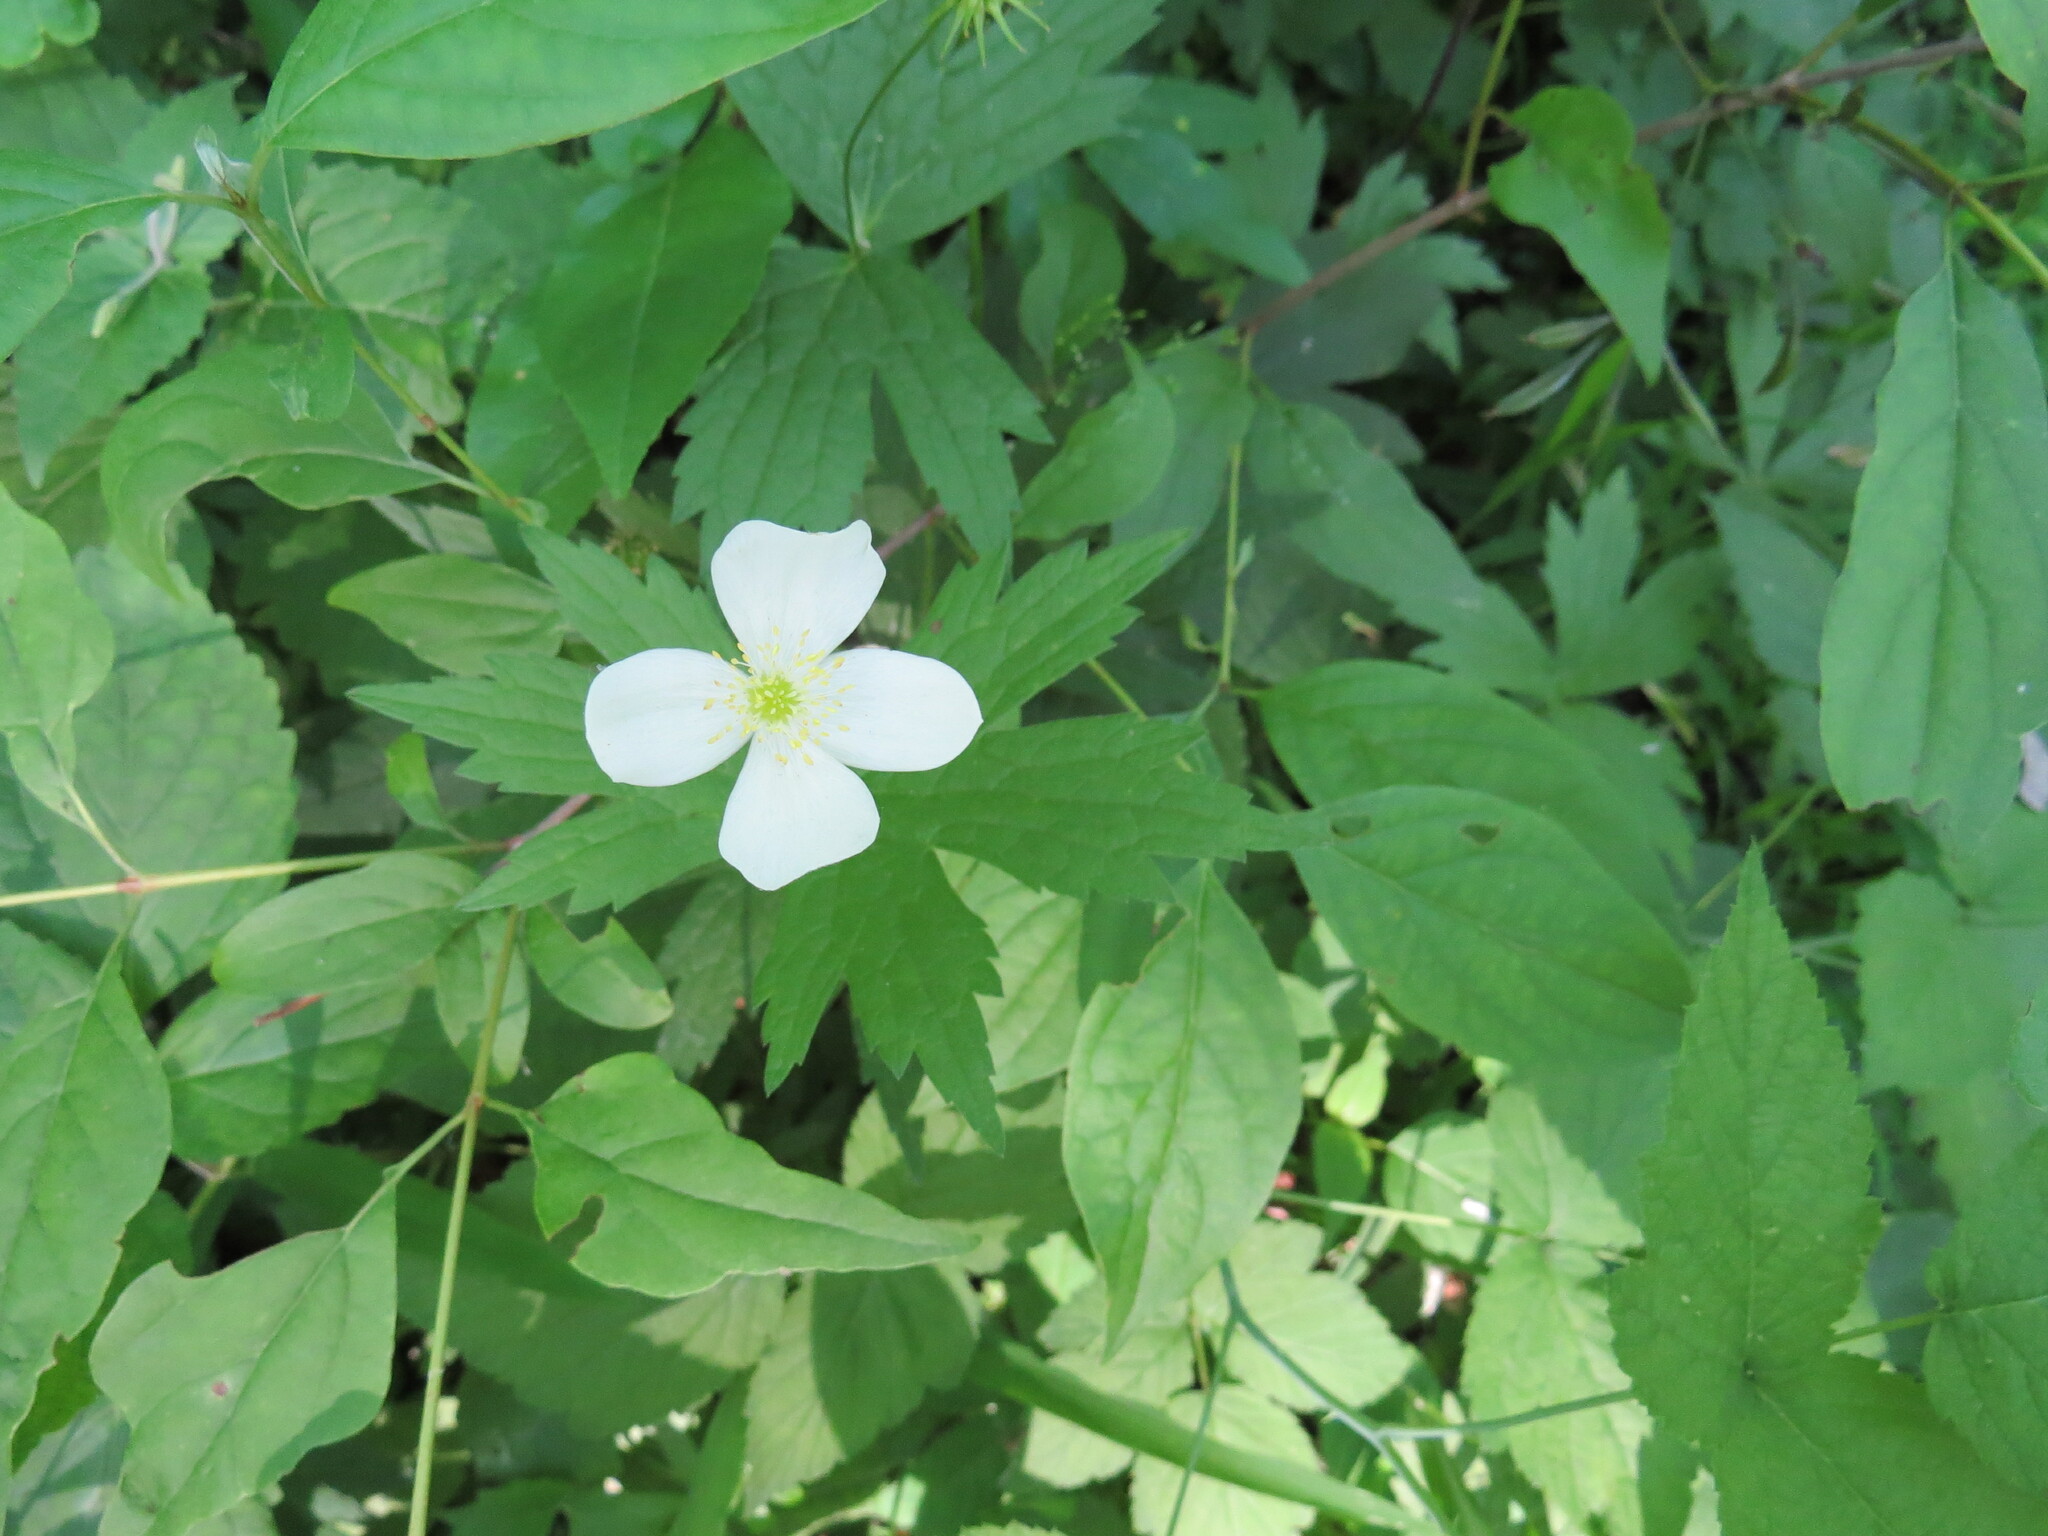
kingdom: Plantae
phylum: Tracheophyta
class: Magnoliopsida
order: Ranunculales
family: Ranunculaceae
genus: Anemonastrum
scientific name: Anemonastrum canadense
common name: Canada anemone
